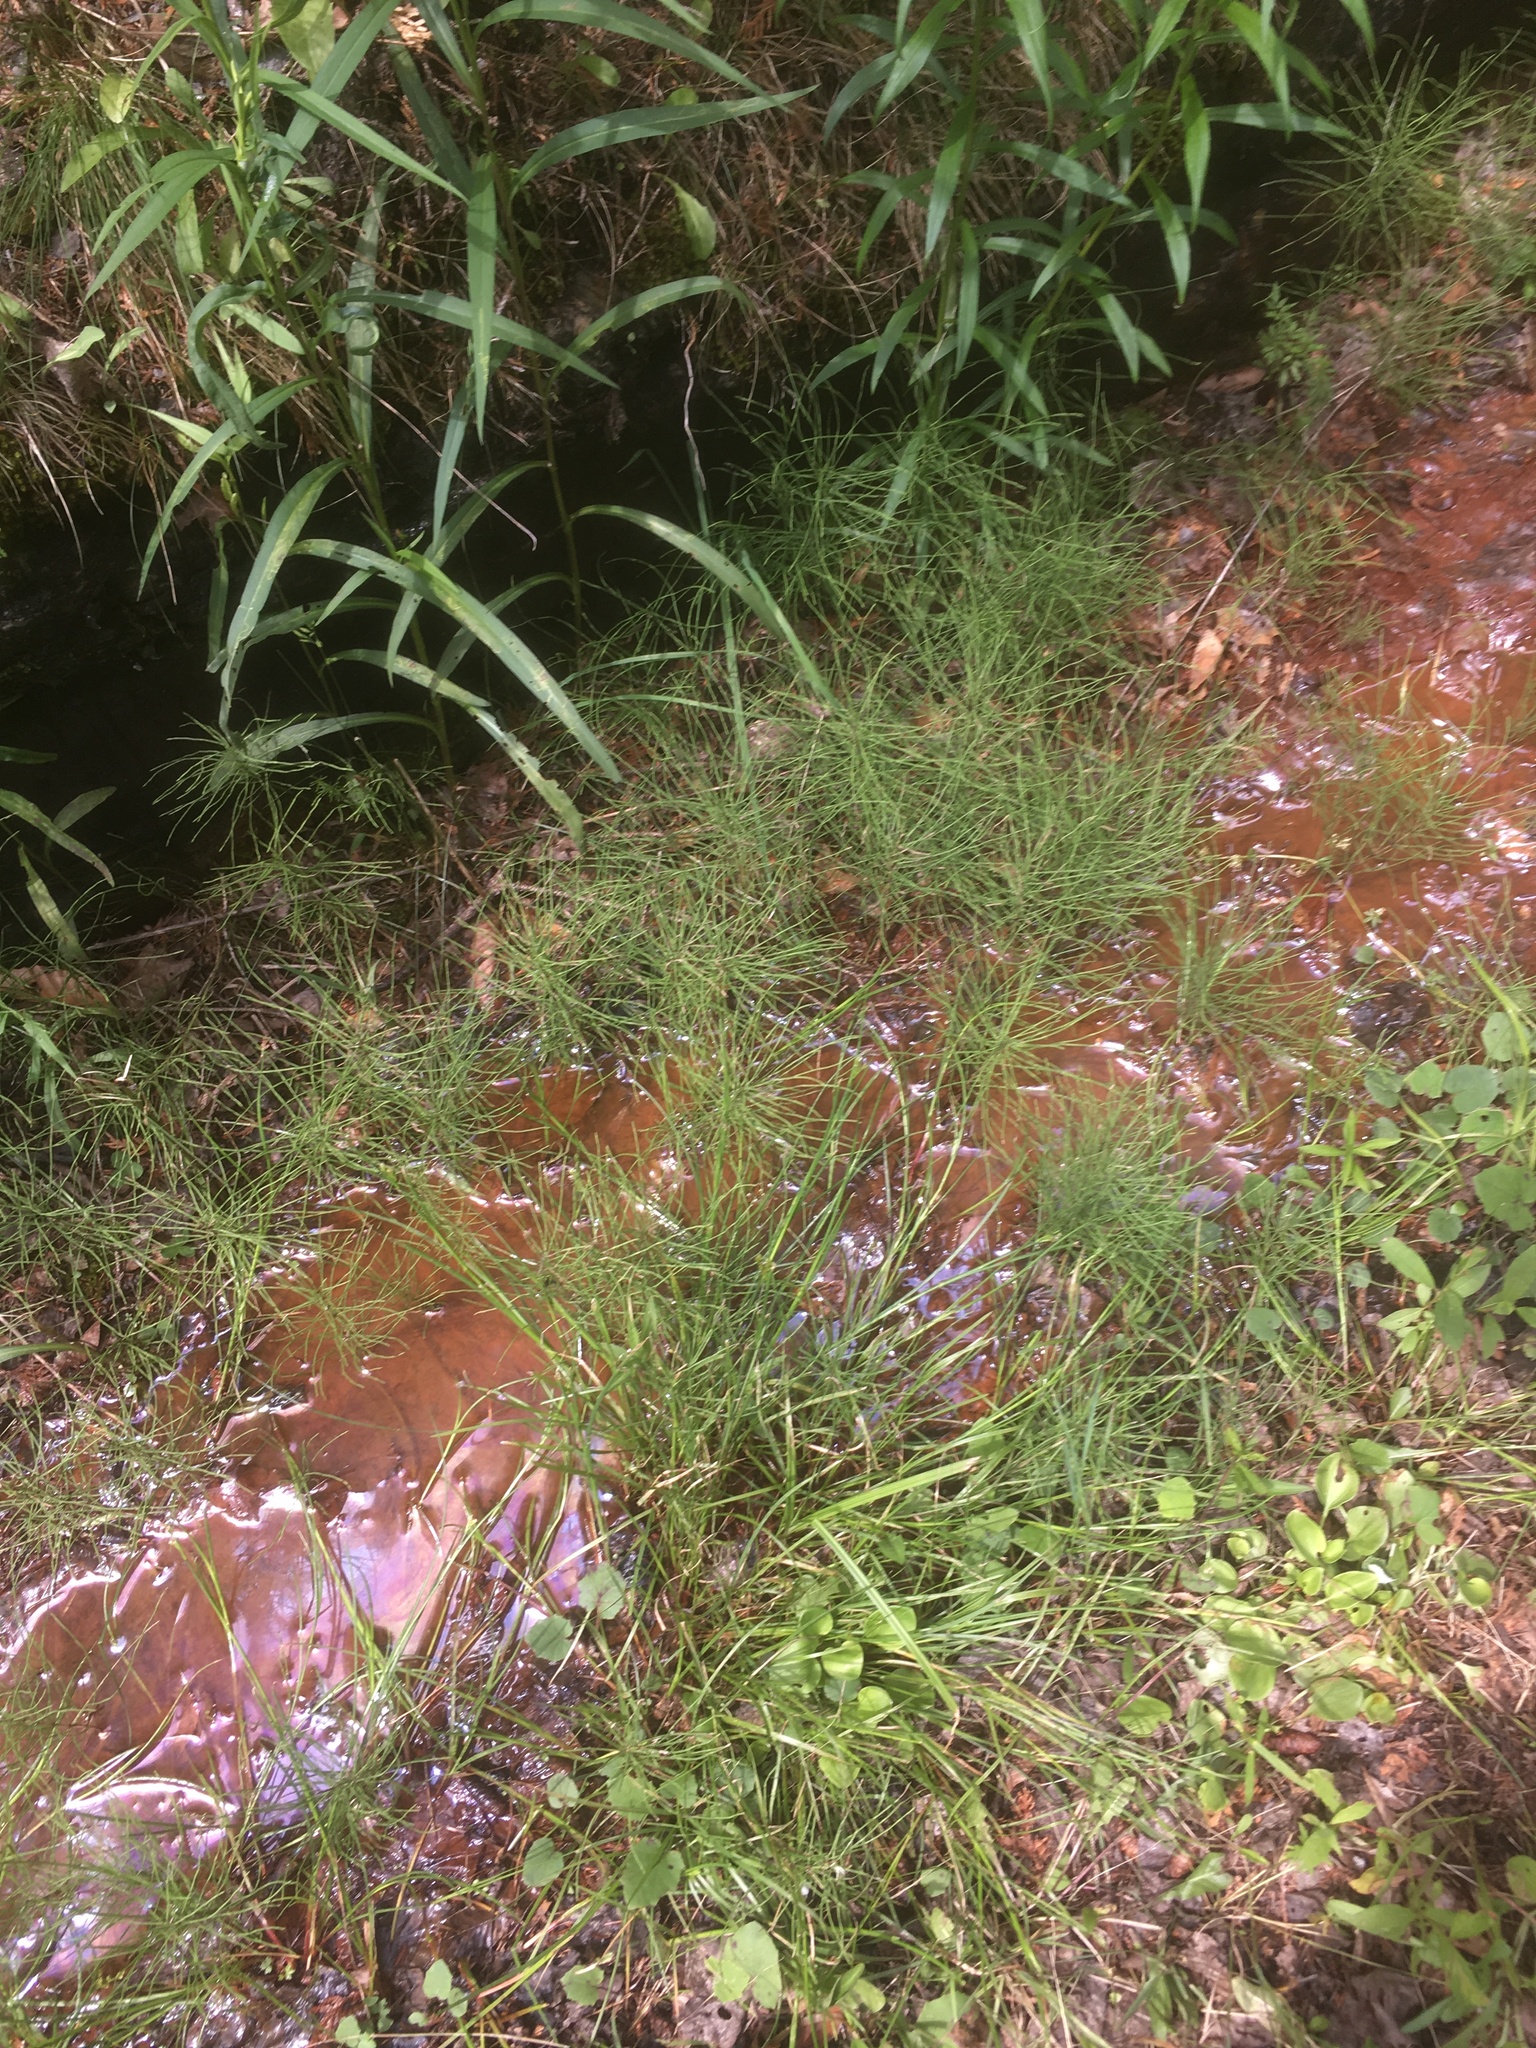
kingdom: Plantae
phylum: Tracheophyta
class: Polypodiopsida
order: Equisetales
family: Equisetaceae
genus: Equisetum
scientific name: Equisetum arvense
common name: Field horsetail
